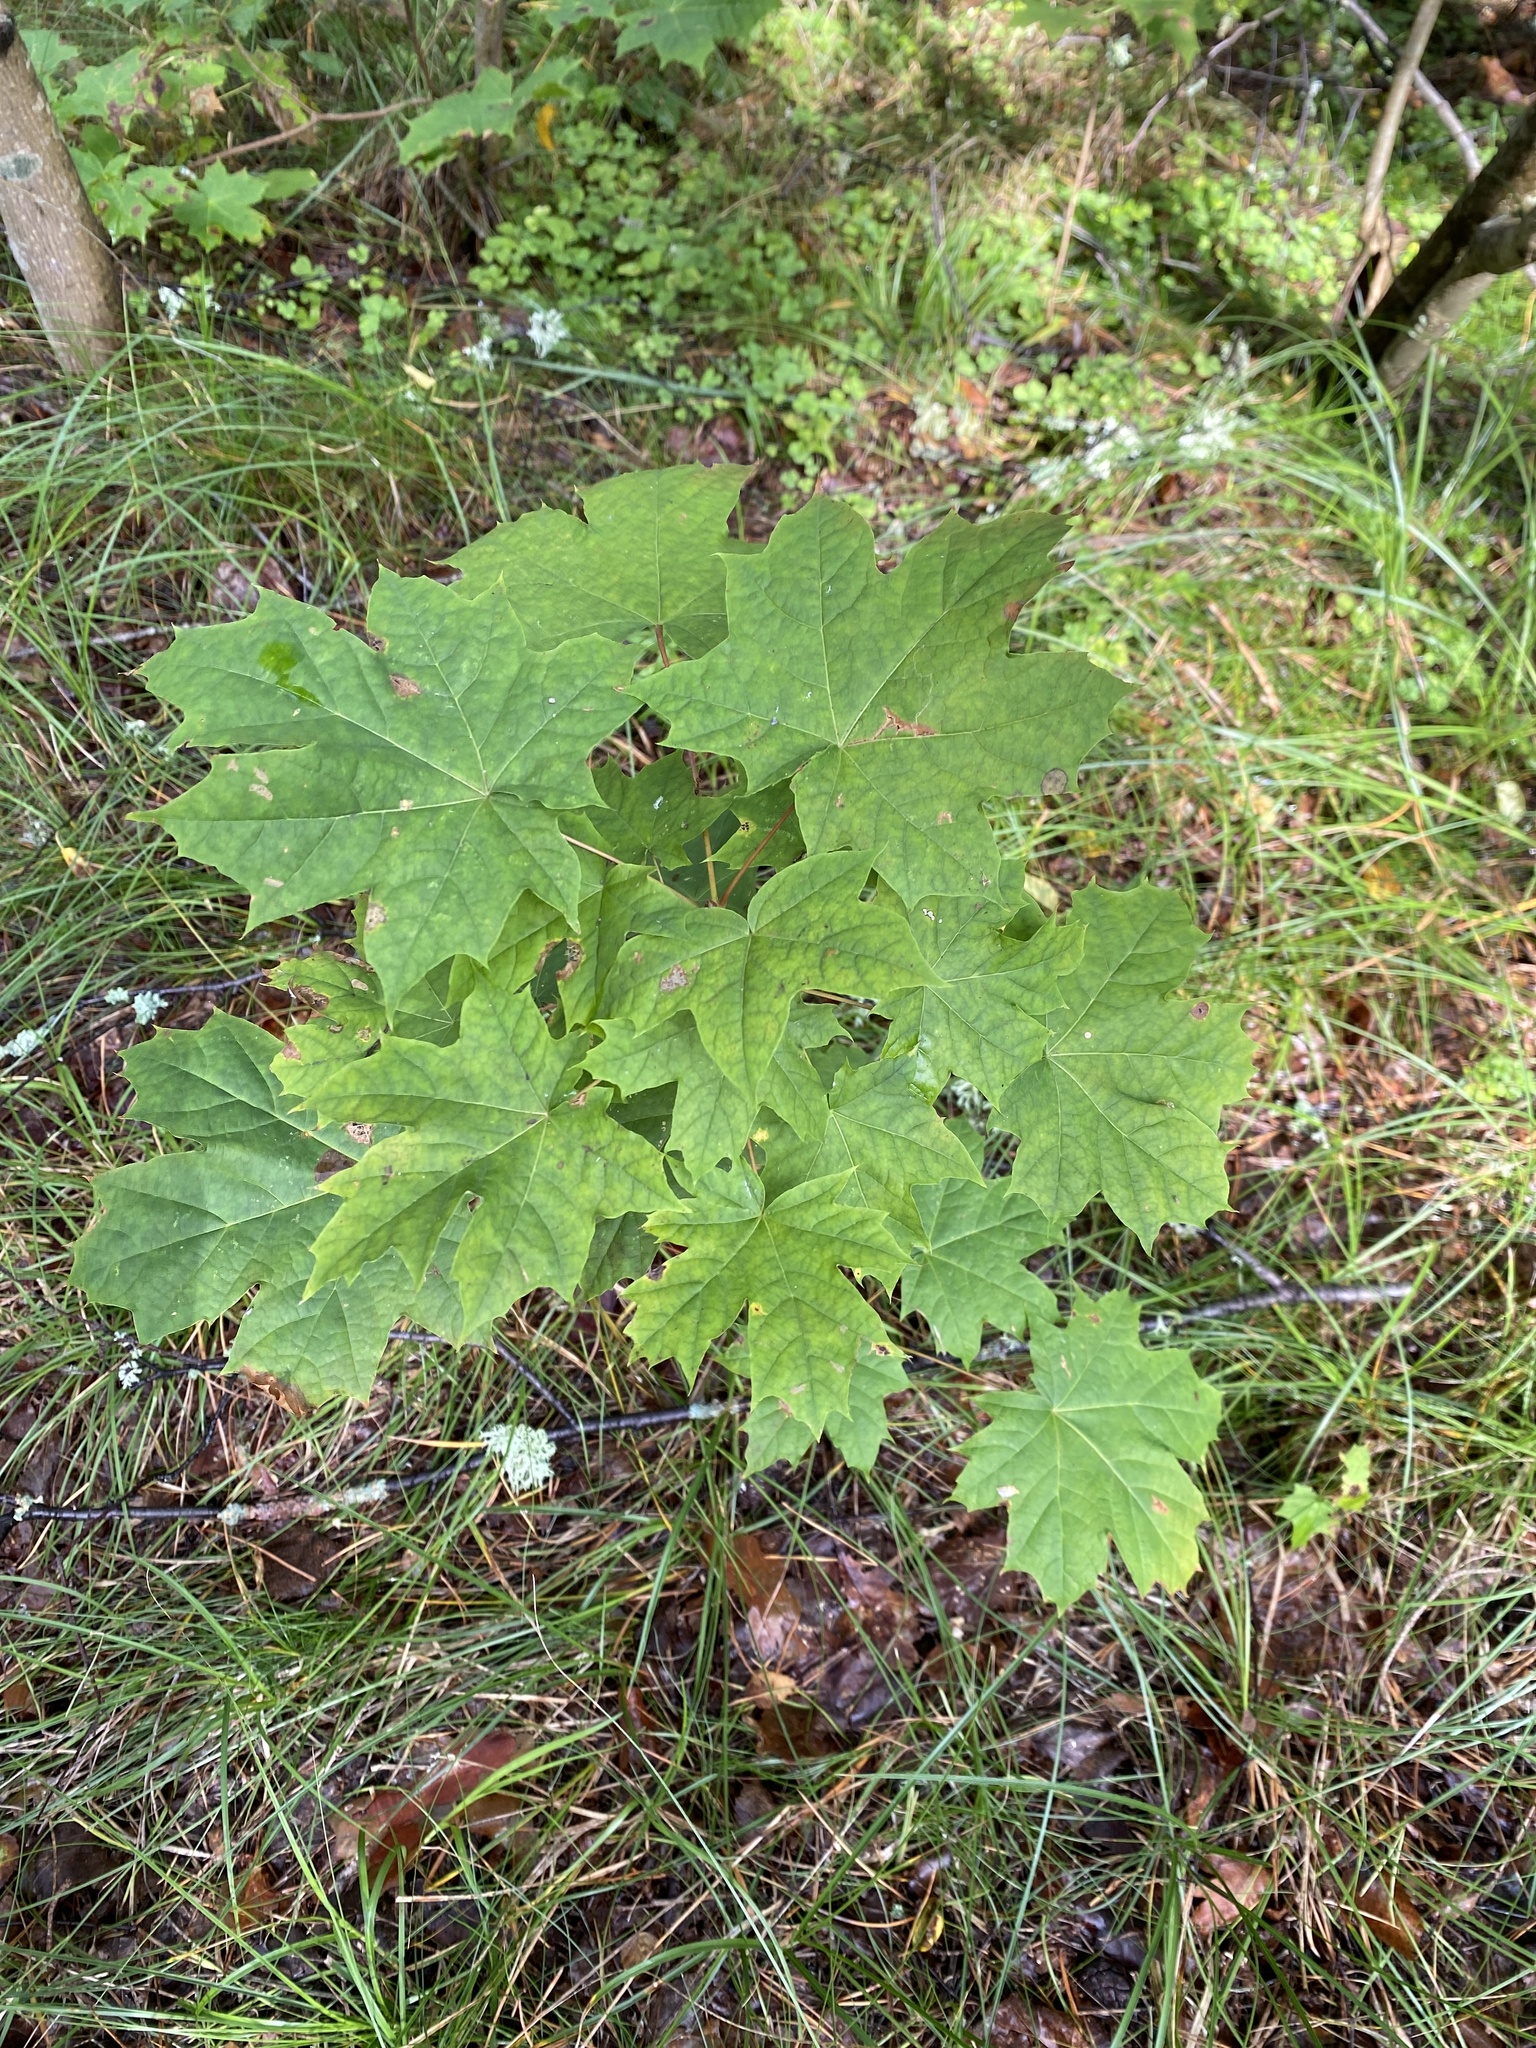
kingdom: Plantae
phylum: Tracheophyta
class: Magnoliopsida
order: Sapindales
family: Sapindaceae
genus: Acer
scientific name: Acer platanoides
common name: Norway maple
